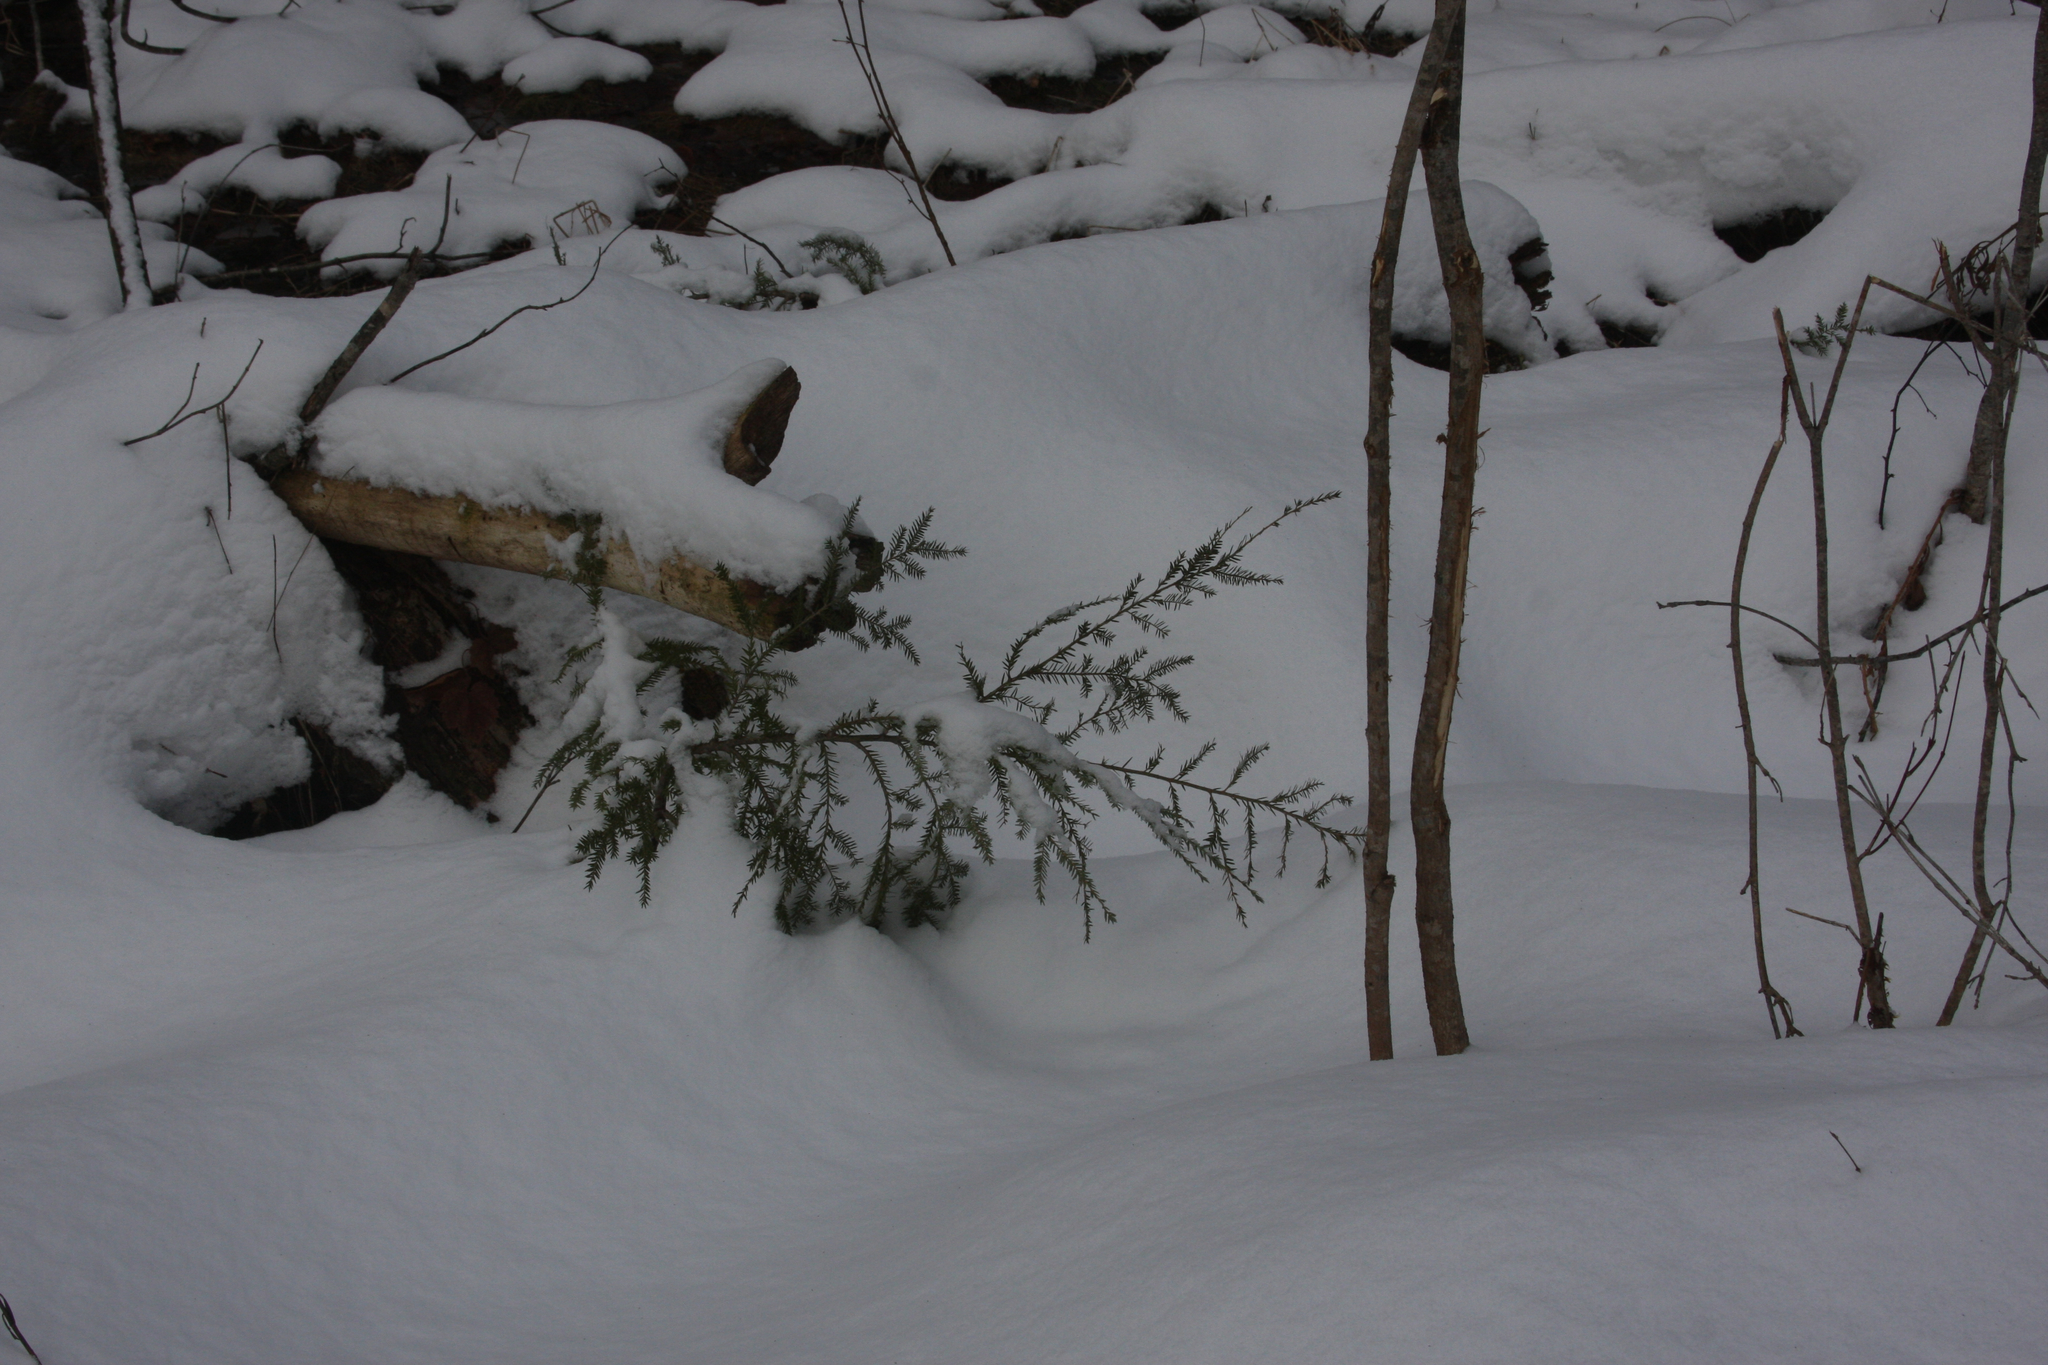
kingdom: Plantae
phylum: Tracheophyta
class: Pinopsida
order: Pinales
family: Pinaceae
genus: Tsuga
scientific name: Tsuga canadensis
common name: Eastern hemlock
